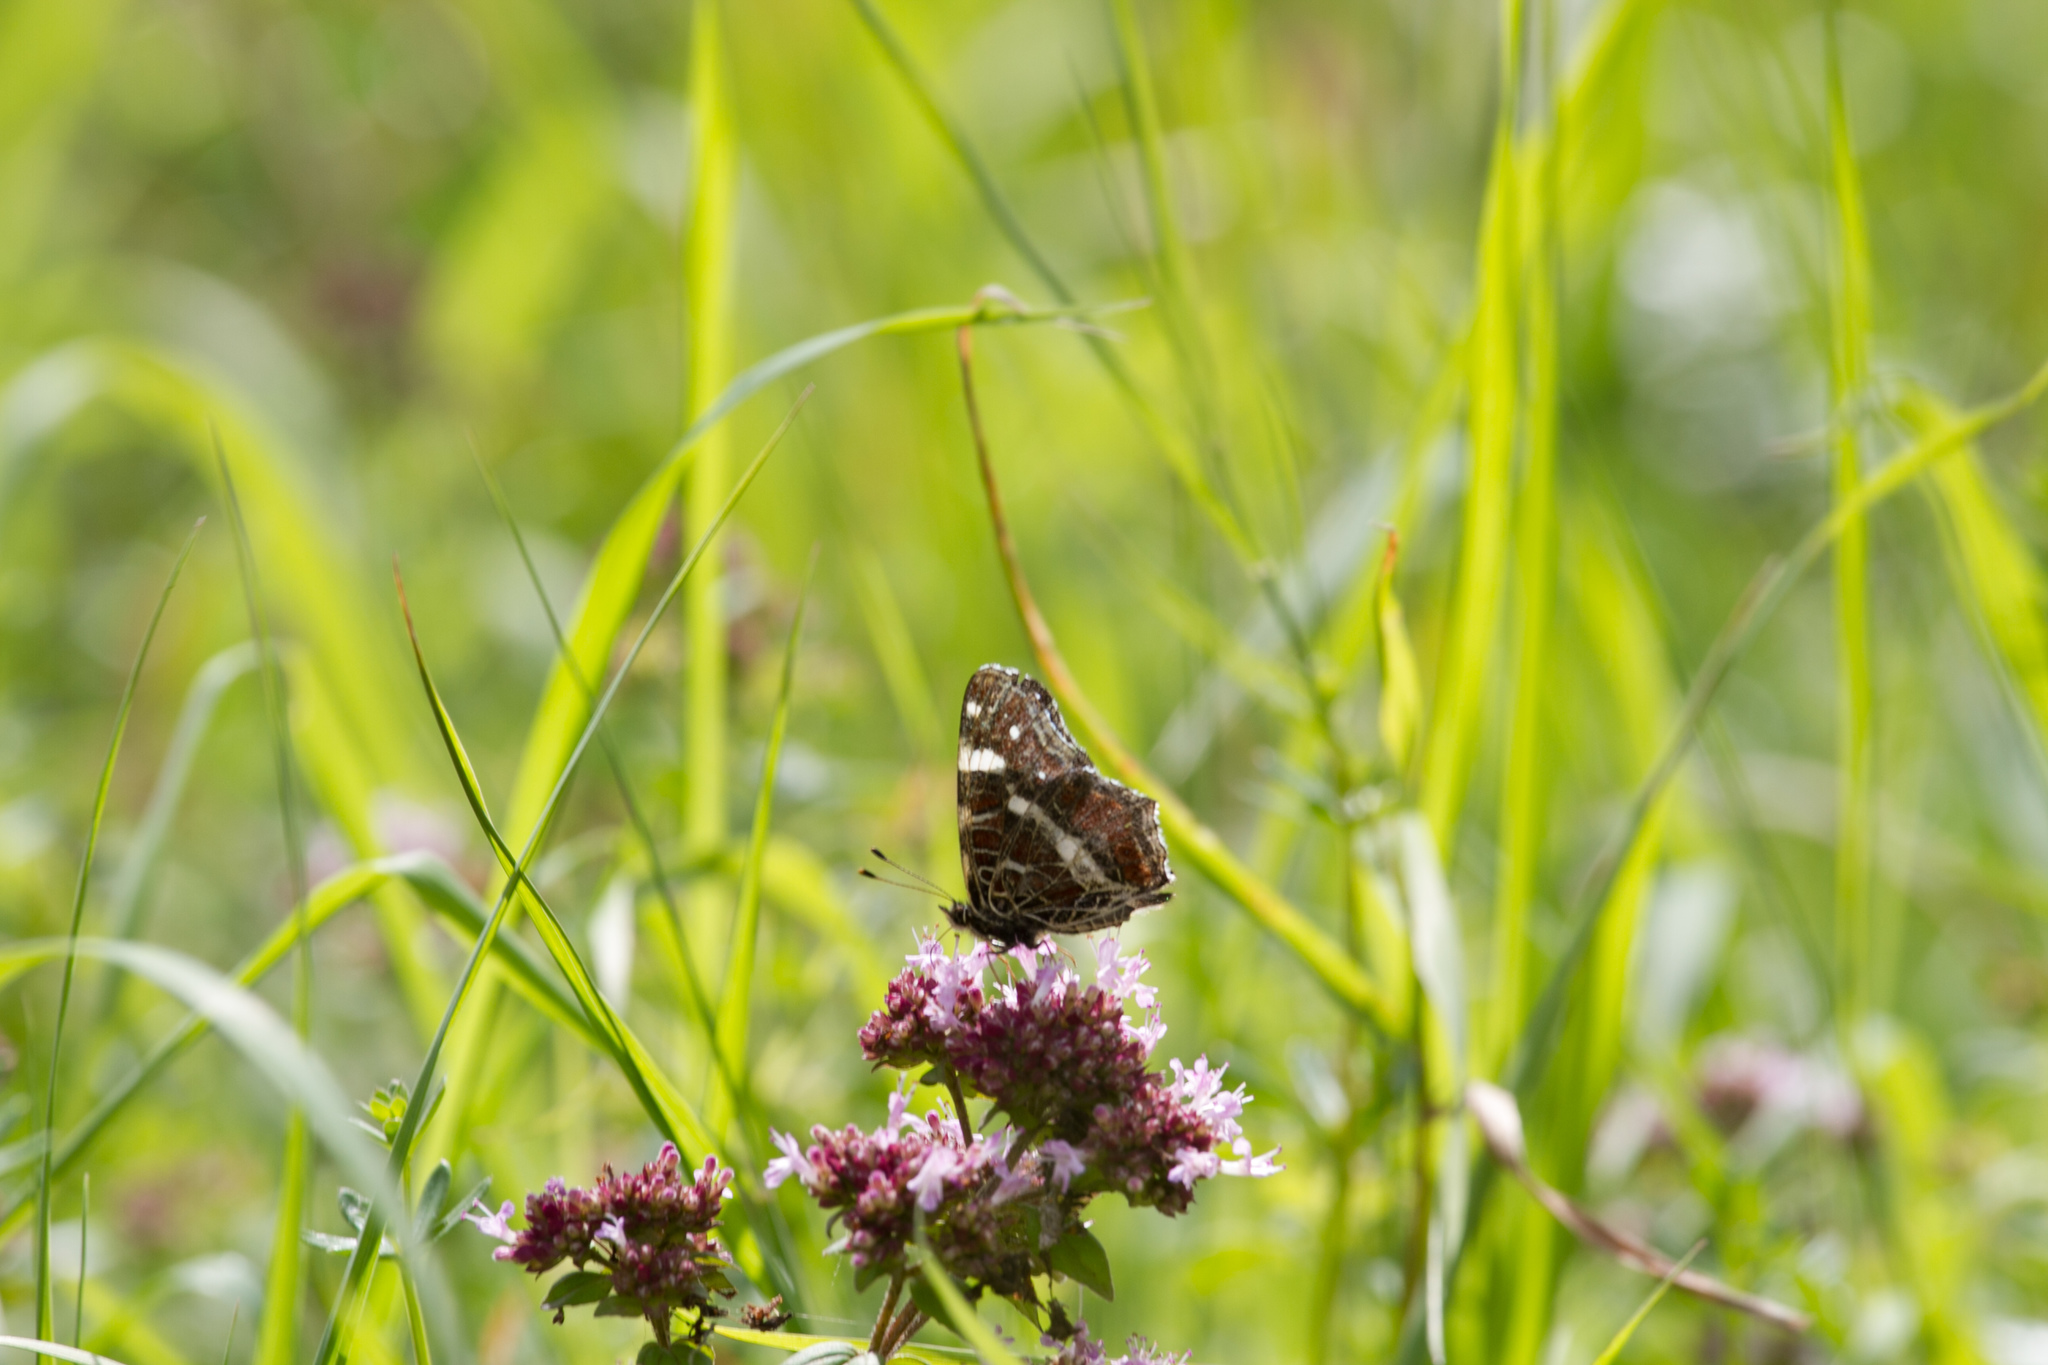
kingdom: Animalia
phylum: Arthropoda
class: Insecta
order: Lepidoptera
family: Nymphalidae
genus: Araschnia
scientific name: Araschnia levana
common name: Map butterfly
